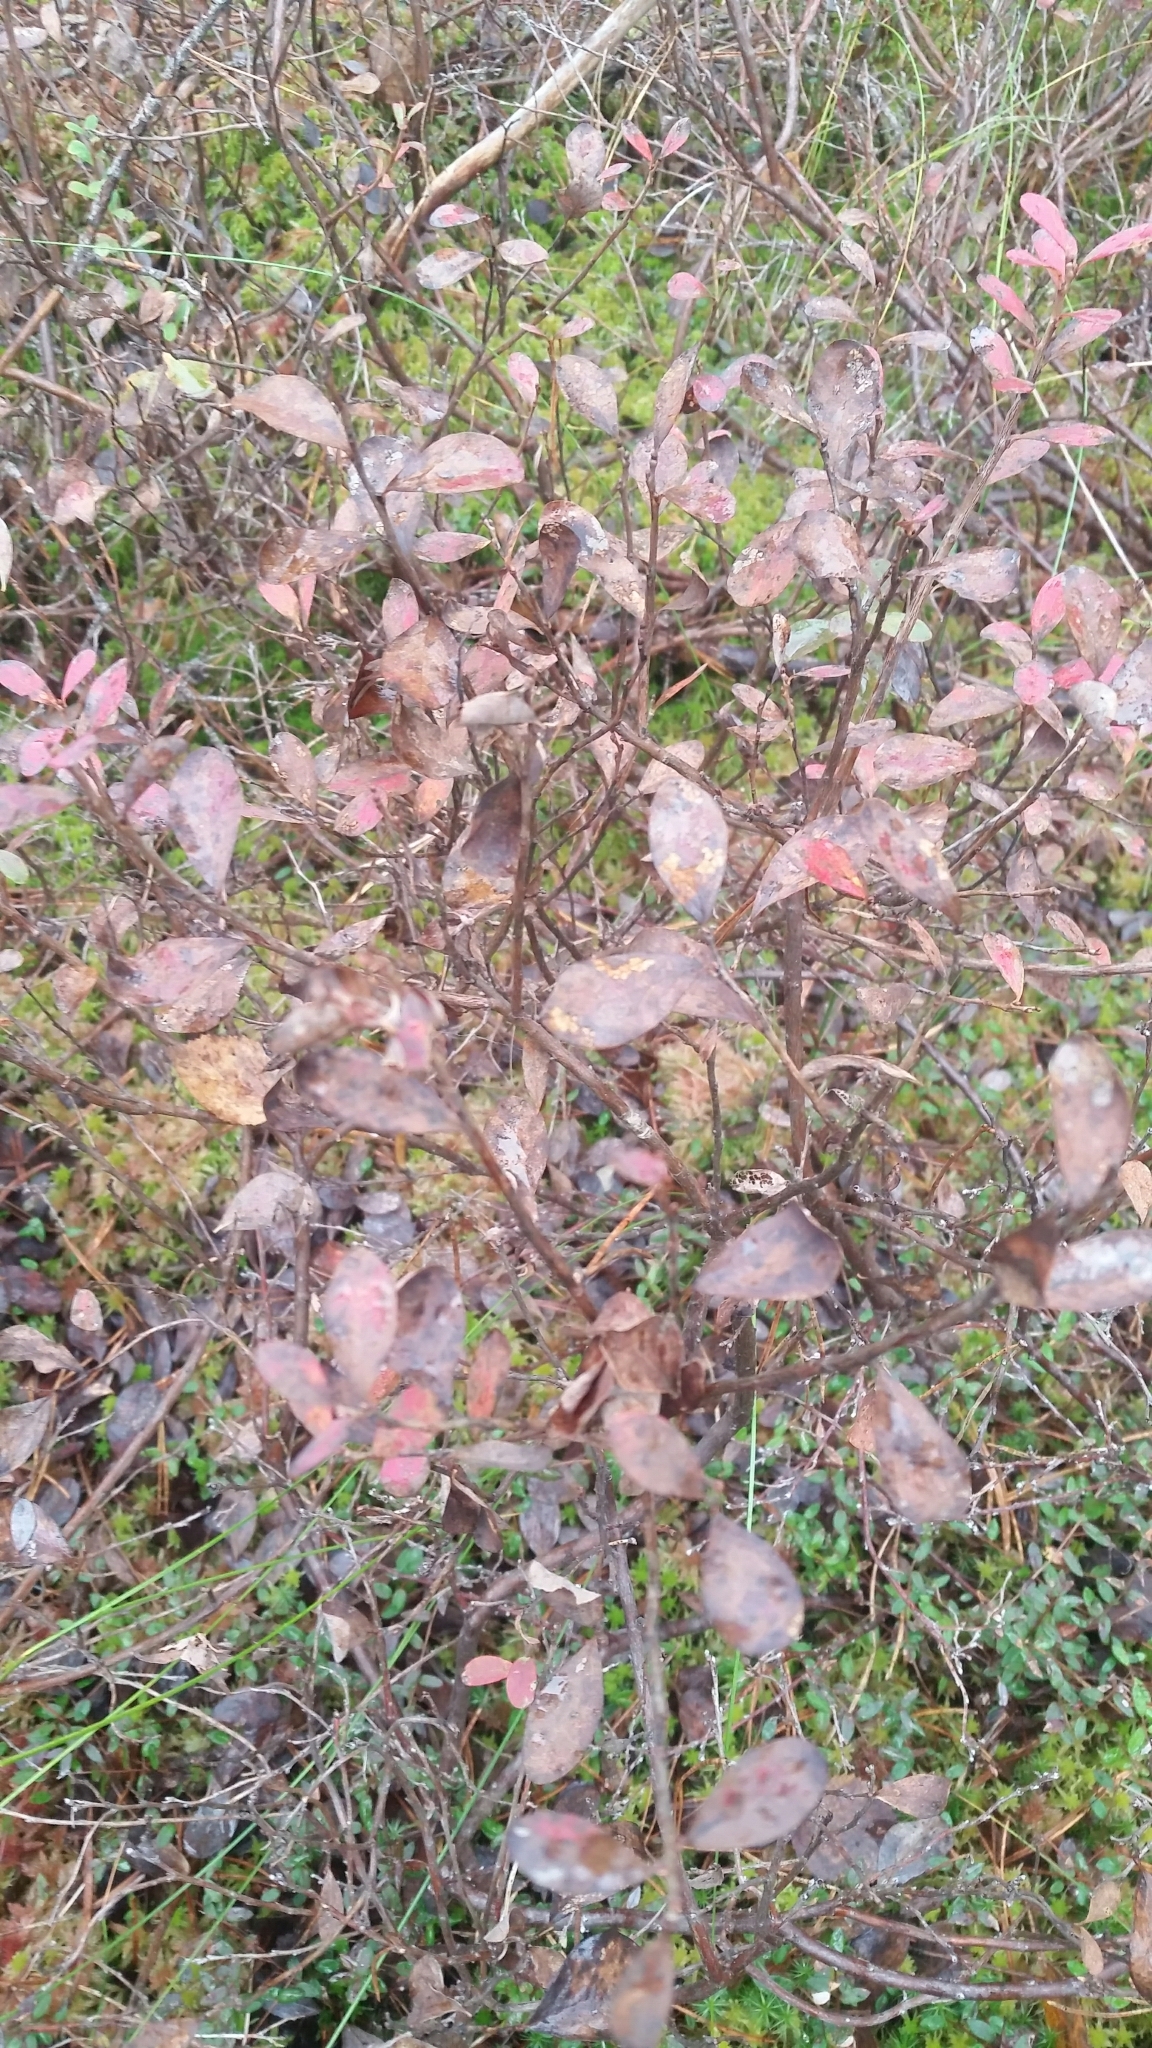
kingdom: Plantae
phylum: Tracheophyta
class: Magnoliopsida
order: Ericales
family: Ericaceae
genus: Vaccinium
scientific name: Vaccinium uliginosum
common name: Bog bilberry
